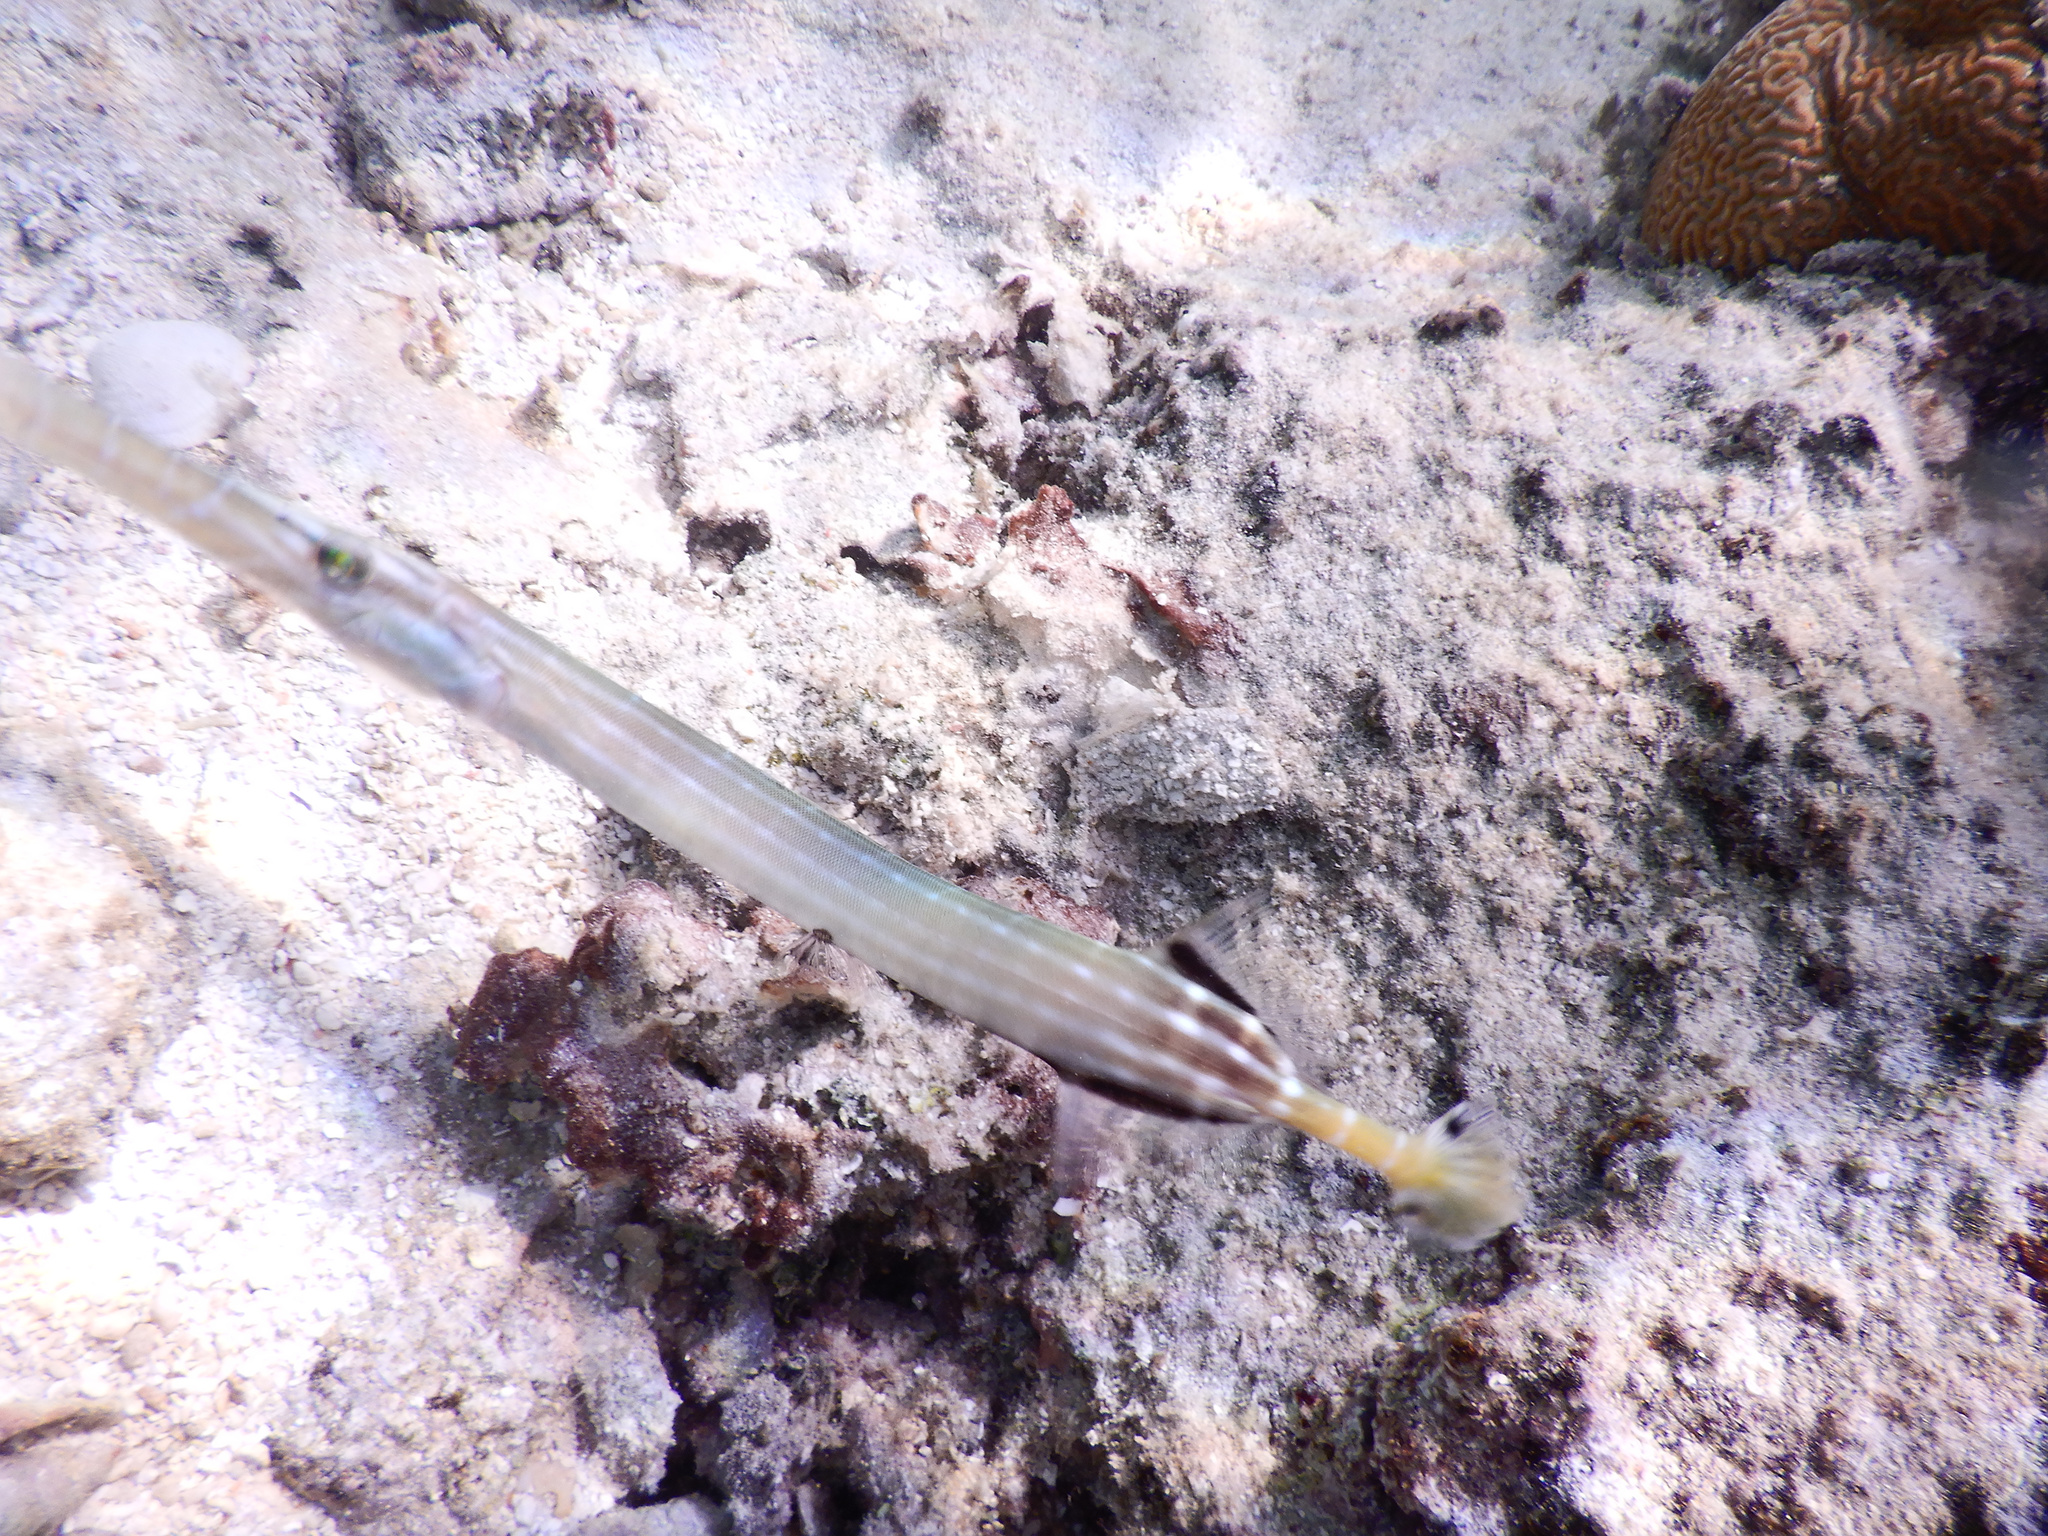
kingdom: Animalia
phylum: Chordata
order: Syngnathiformes
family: Aulostomidae
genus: Aulostomus
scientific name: Aulostomus chinensis
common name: Chinese trumpetfish
